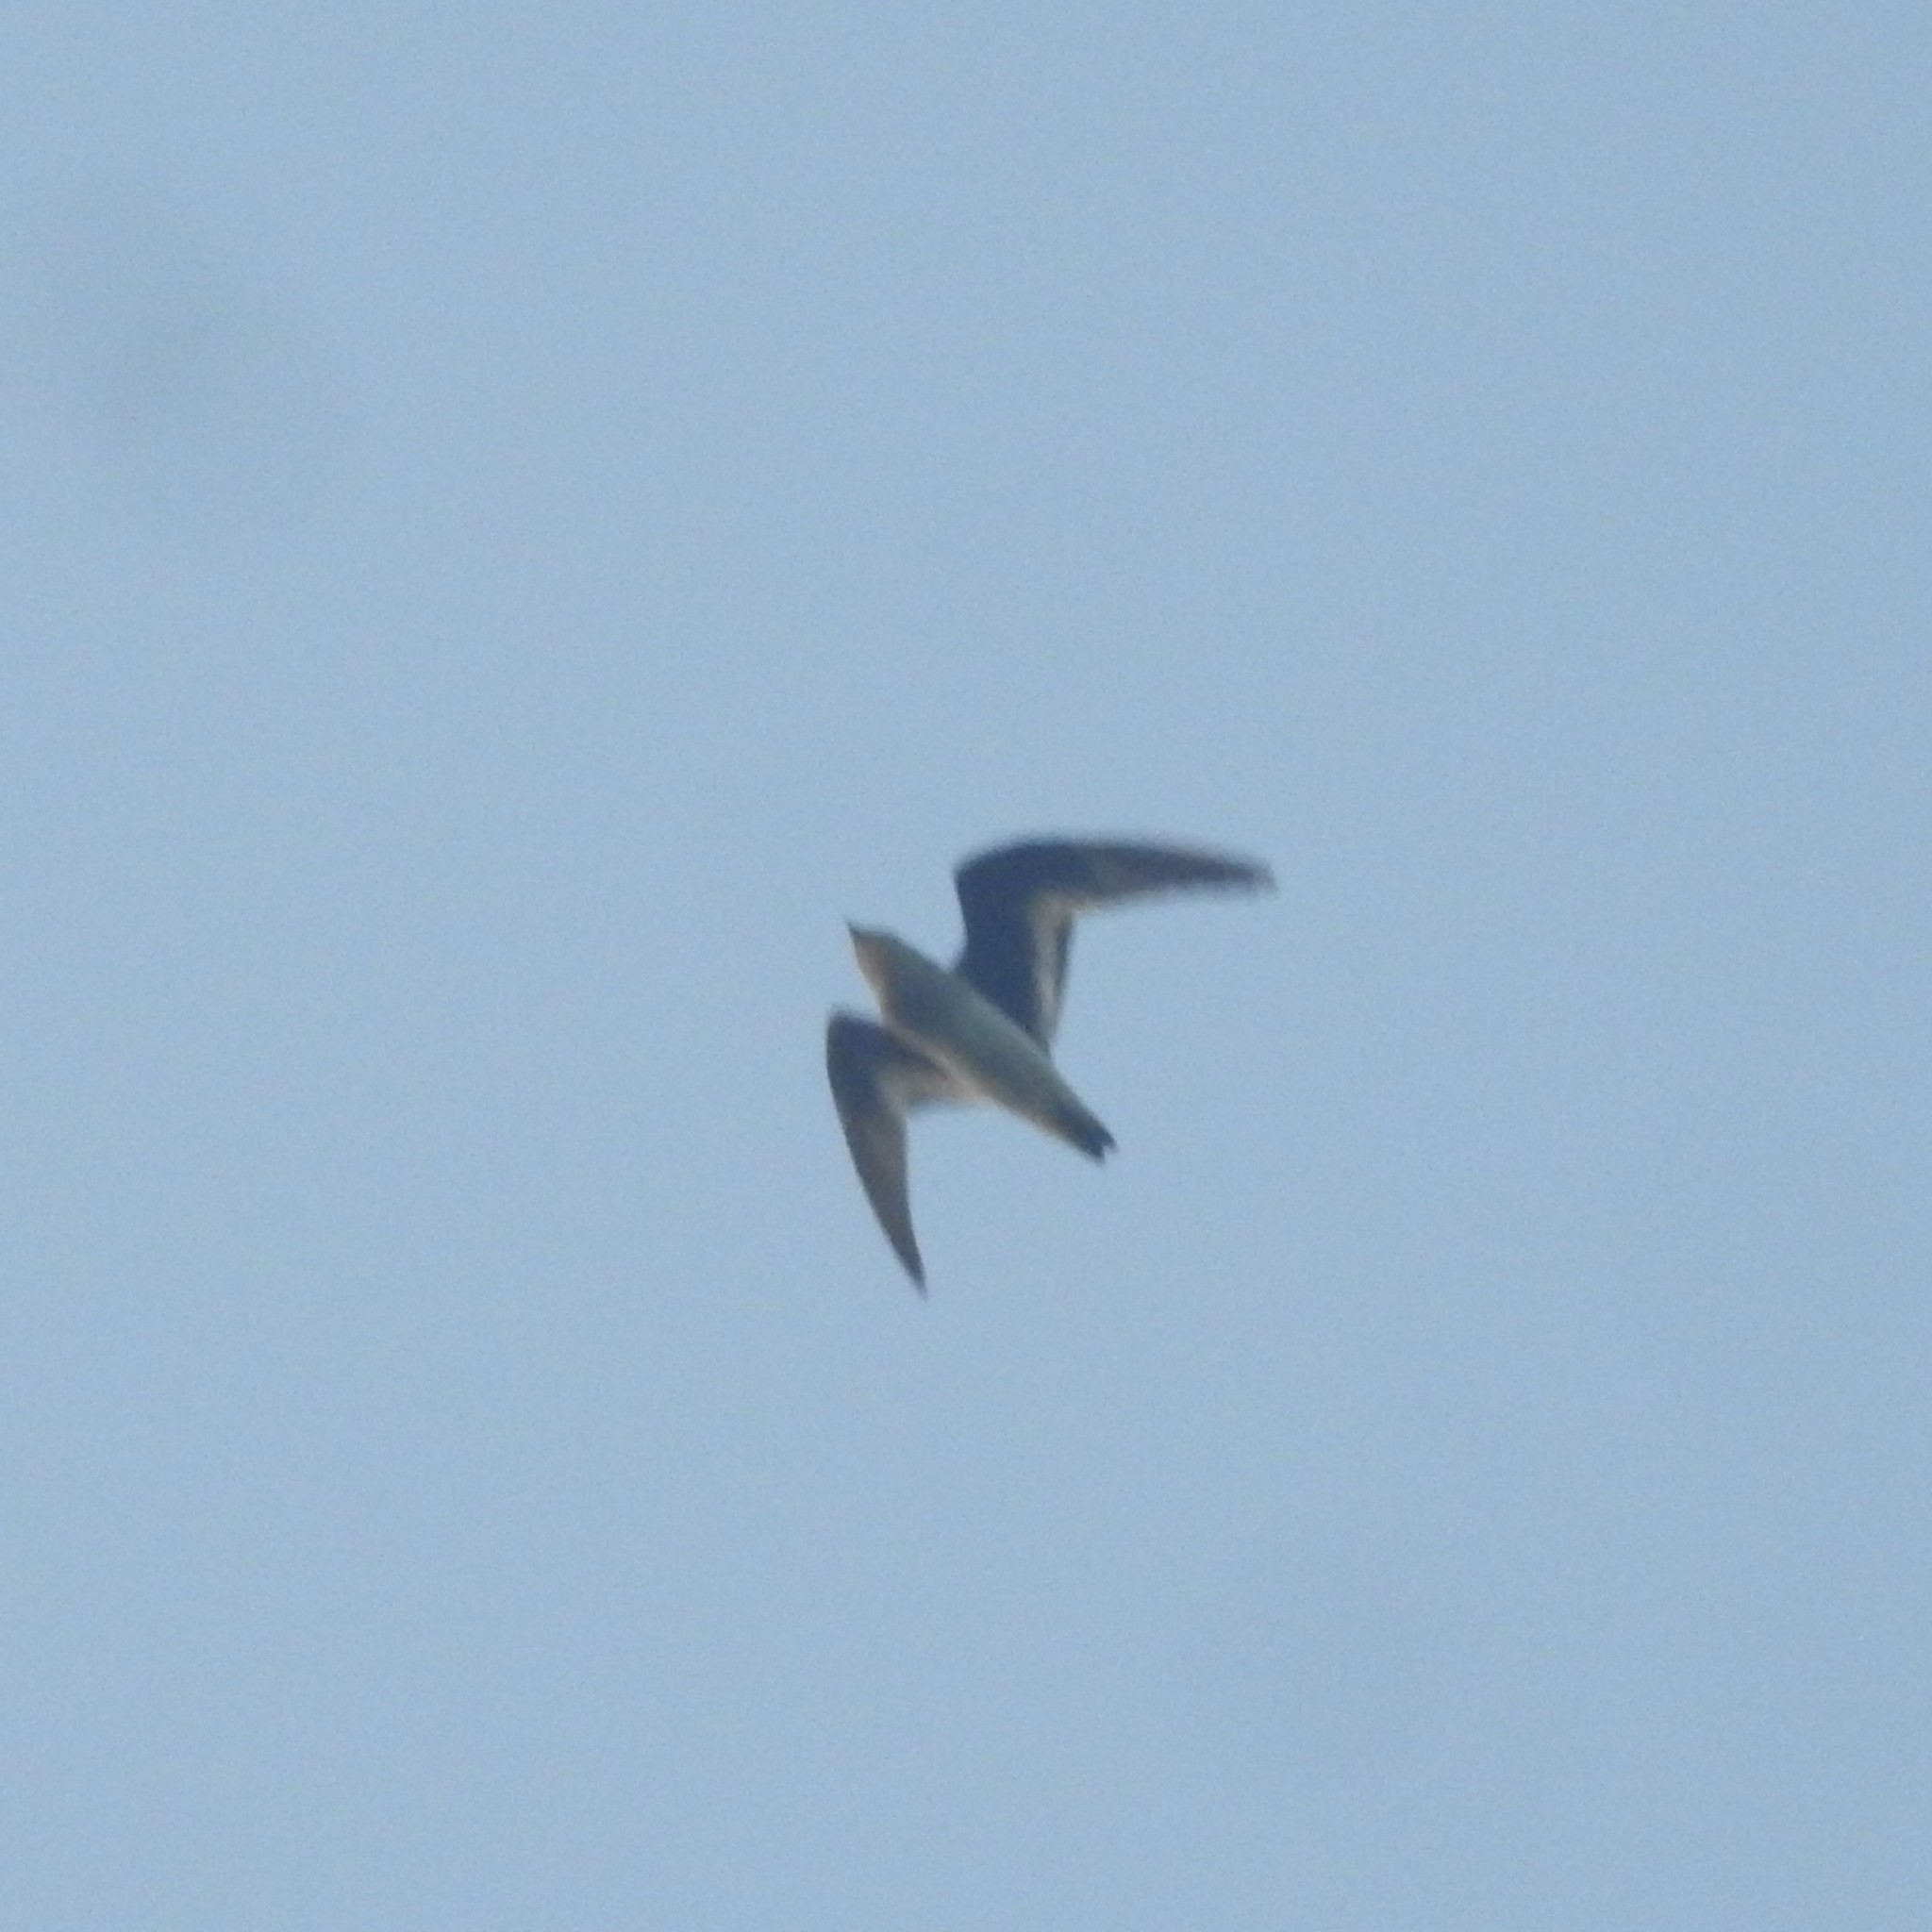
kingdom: Animalia
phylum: Chordata
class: Aves
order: Charadriiformes
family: Glareolidae
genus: Glareola
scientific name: Glareola lactea
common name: Small pratincole
